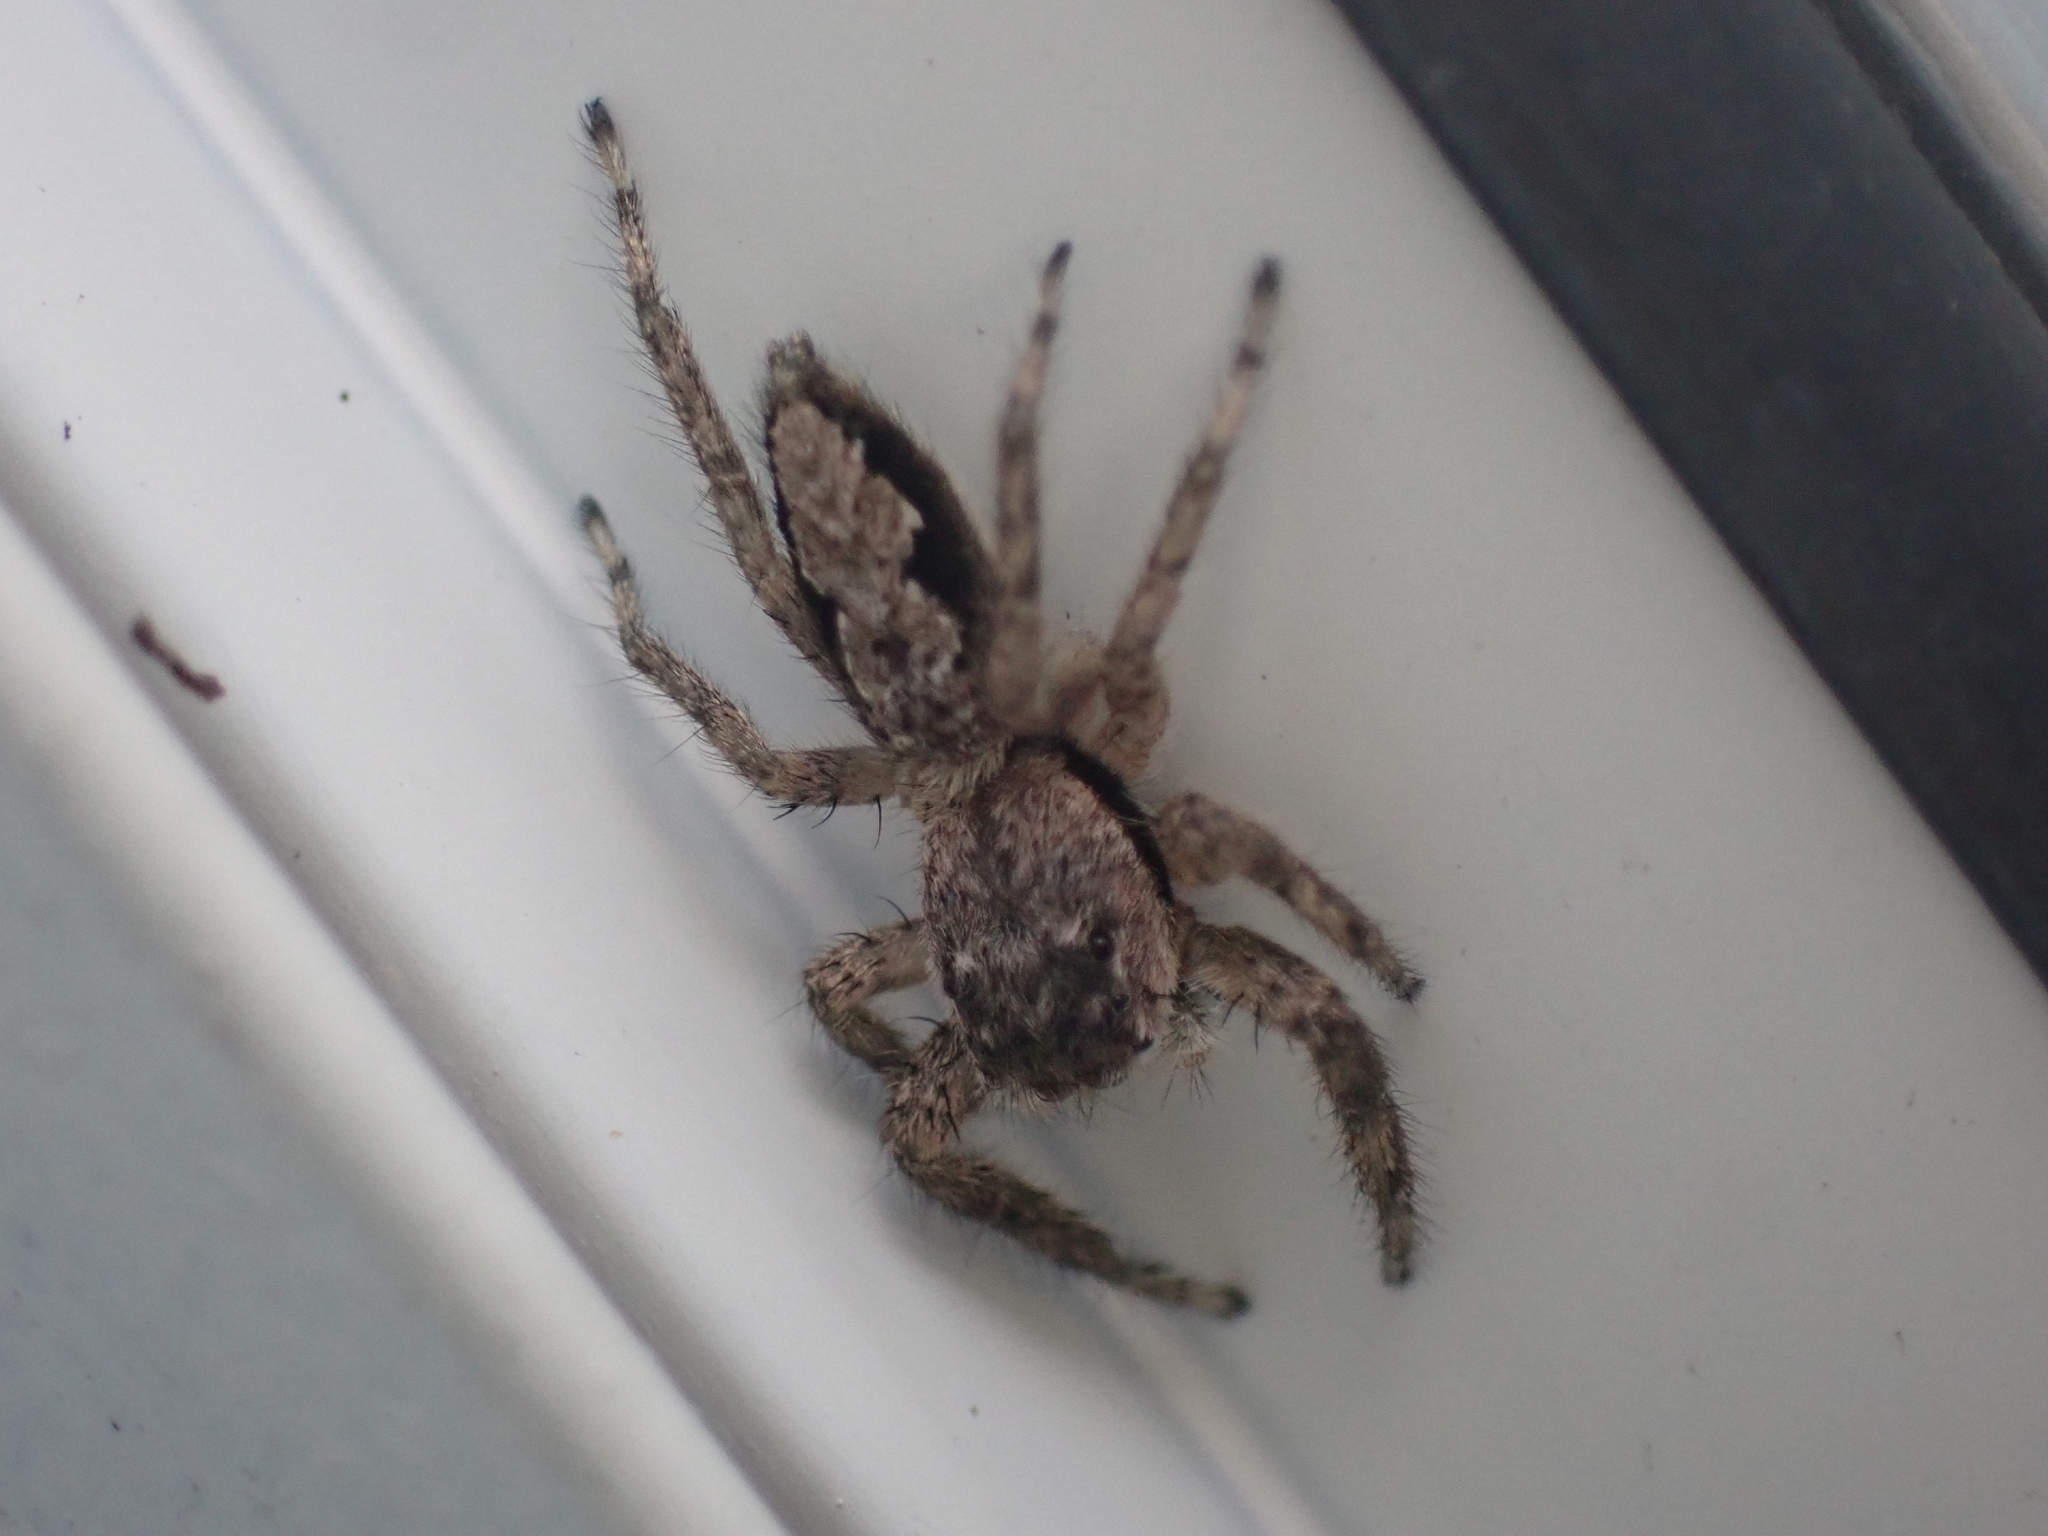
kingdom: Animalia
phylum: Arthropoda
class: Arachnida
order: Araneae
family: Salticidae
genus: Platycryptus
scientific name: Platycryptus undatus
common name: Tan jumping spider
